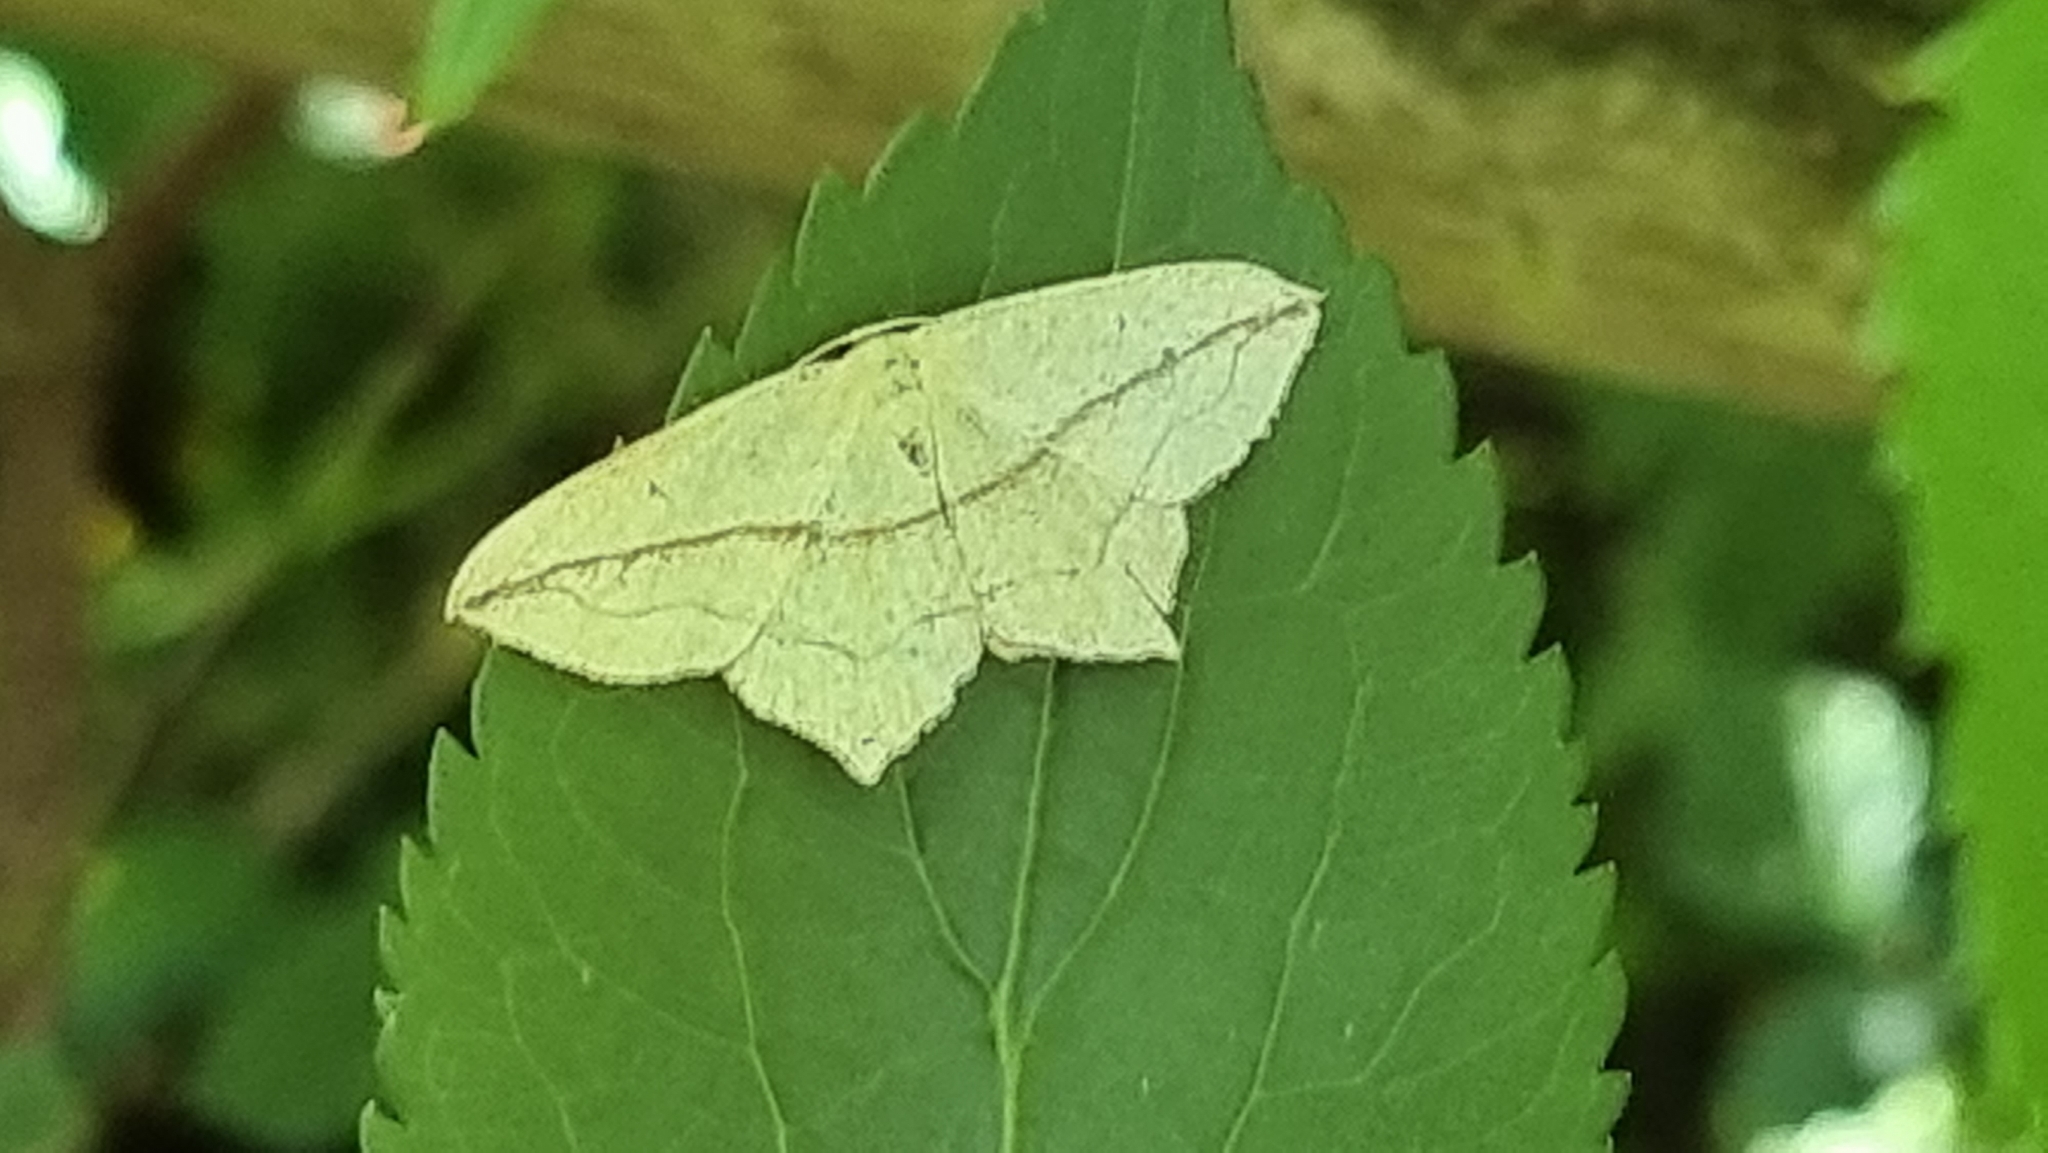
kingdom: Animalia
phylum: Arthropoda
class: Insecta
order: Lepidoptera
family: Geometridae
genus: Timandra
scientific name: Timandra comae
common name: Blood-vein
